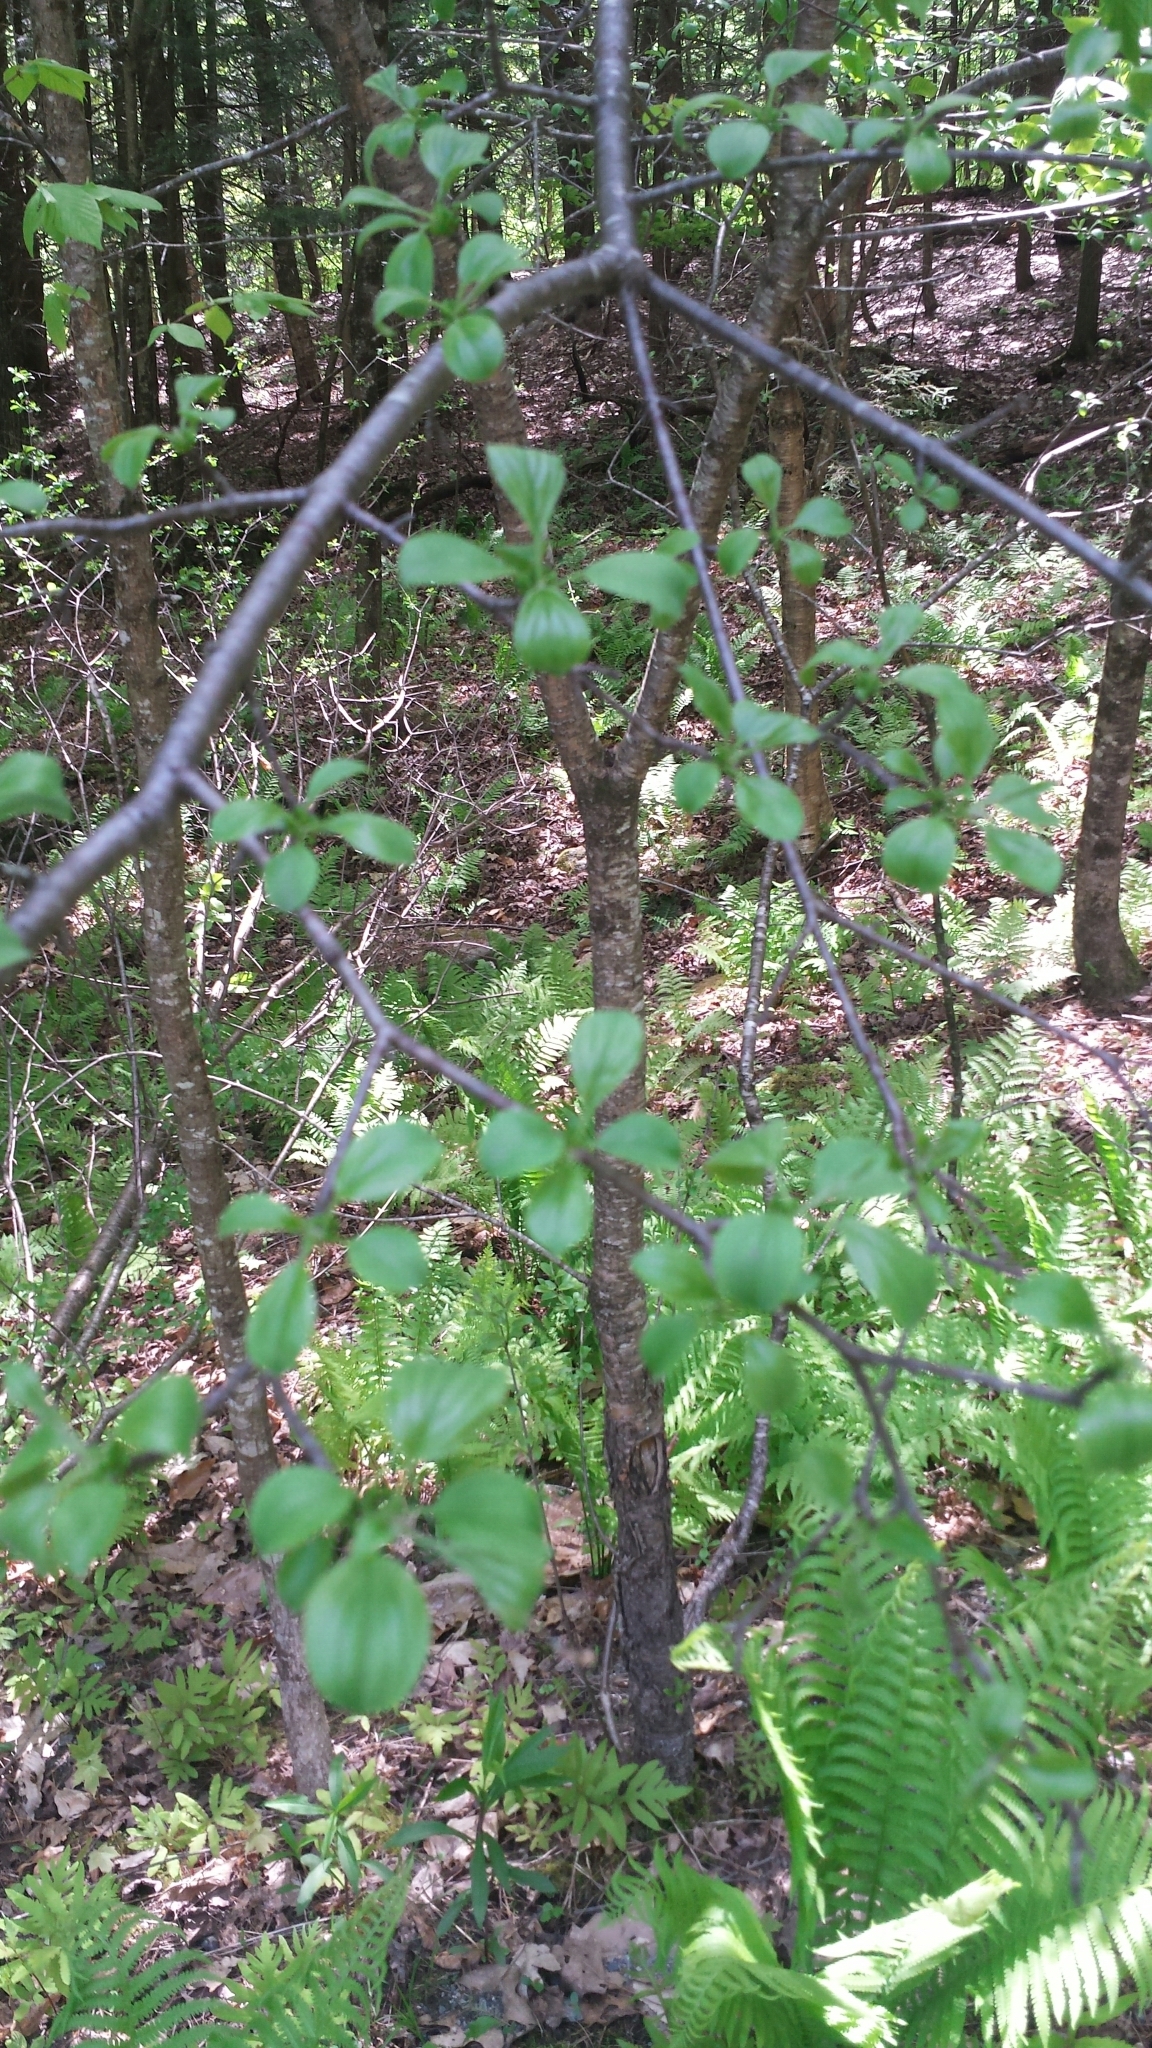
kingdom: Plantae
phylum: Tracheophyta
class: Magnoliopsida
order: Rosales
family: Rhamnaceae
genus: Rhamnus
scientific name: Rhamnus cathartica
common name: Common buckthorn
